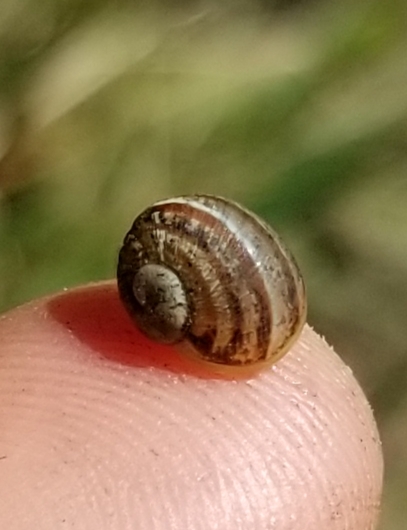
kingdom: Animalia
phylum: Mollusca
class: Gastropoda
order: Stylommatophora
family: Helicidae
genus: Otala
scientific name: Otala lactea
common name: Milk snail
